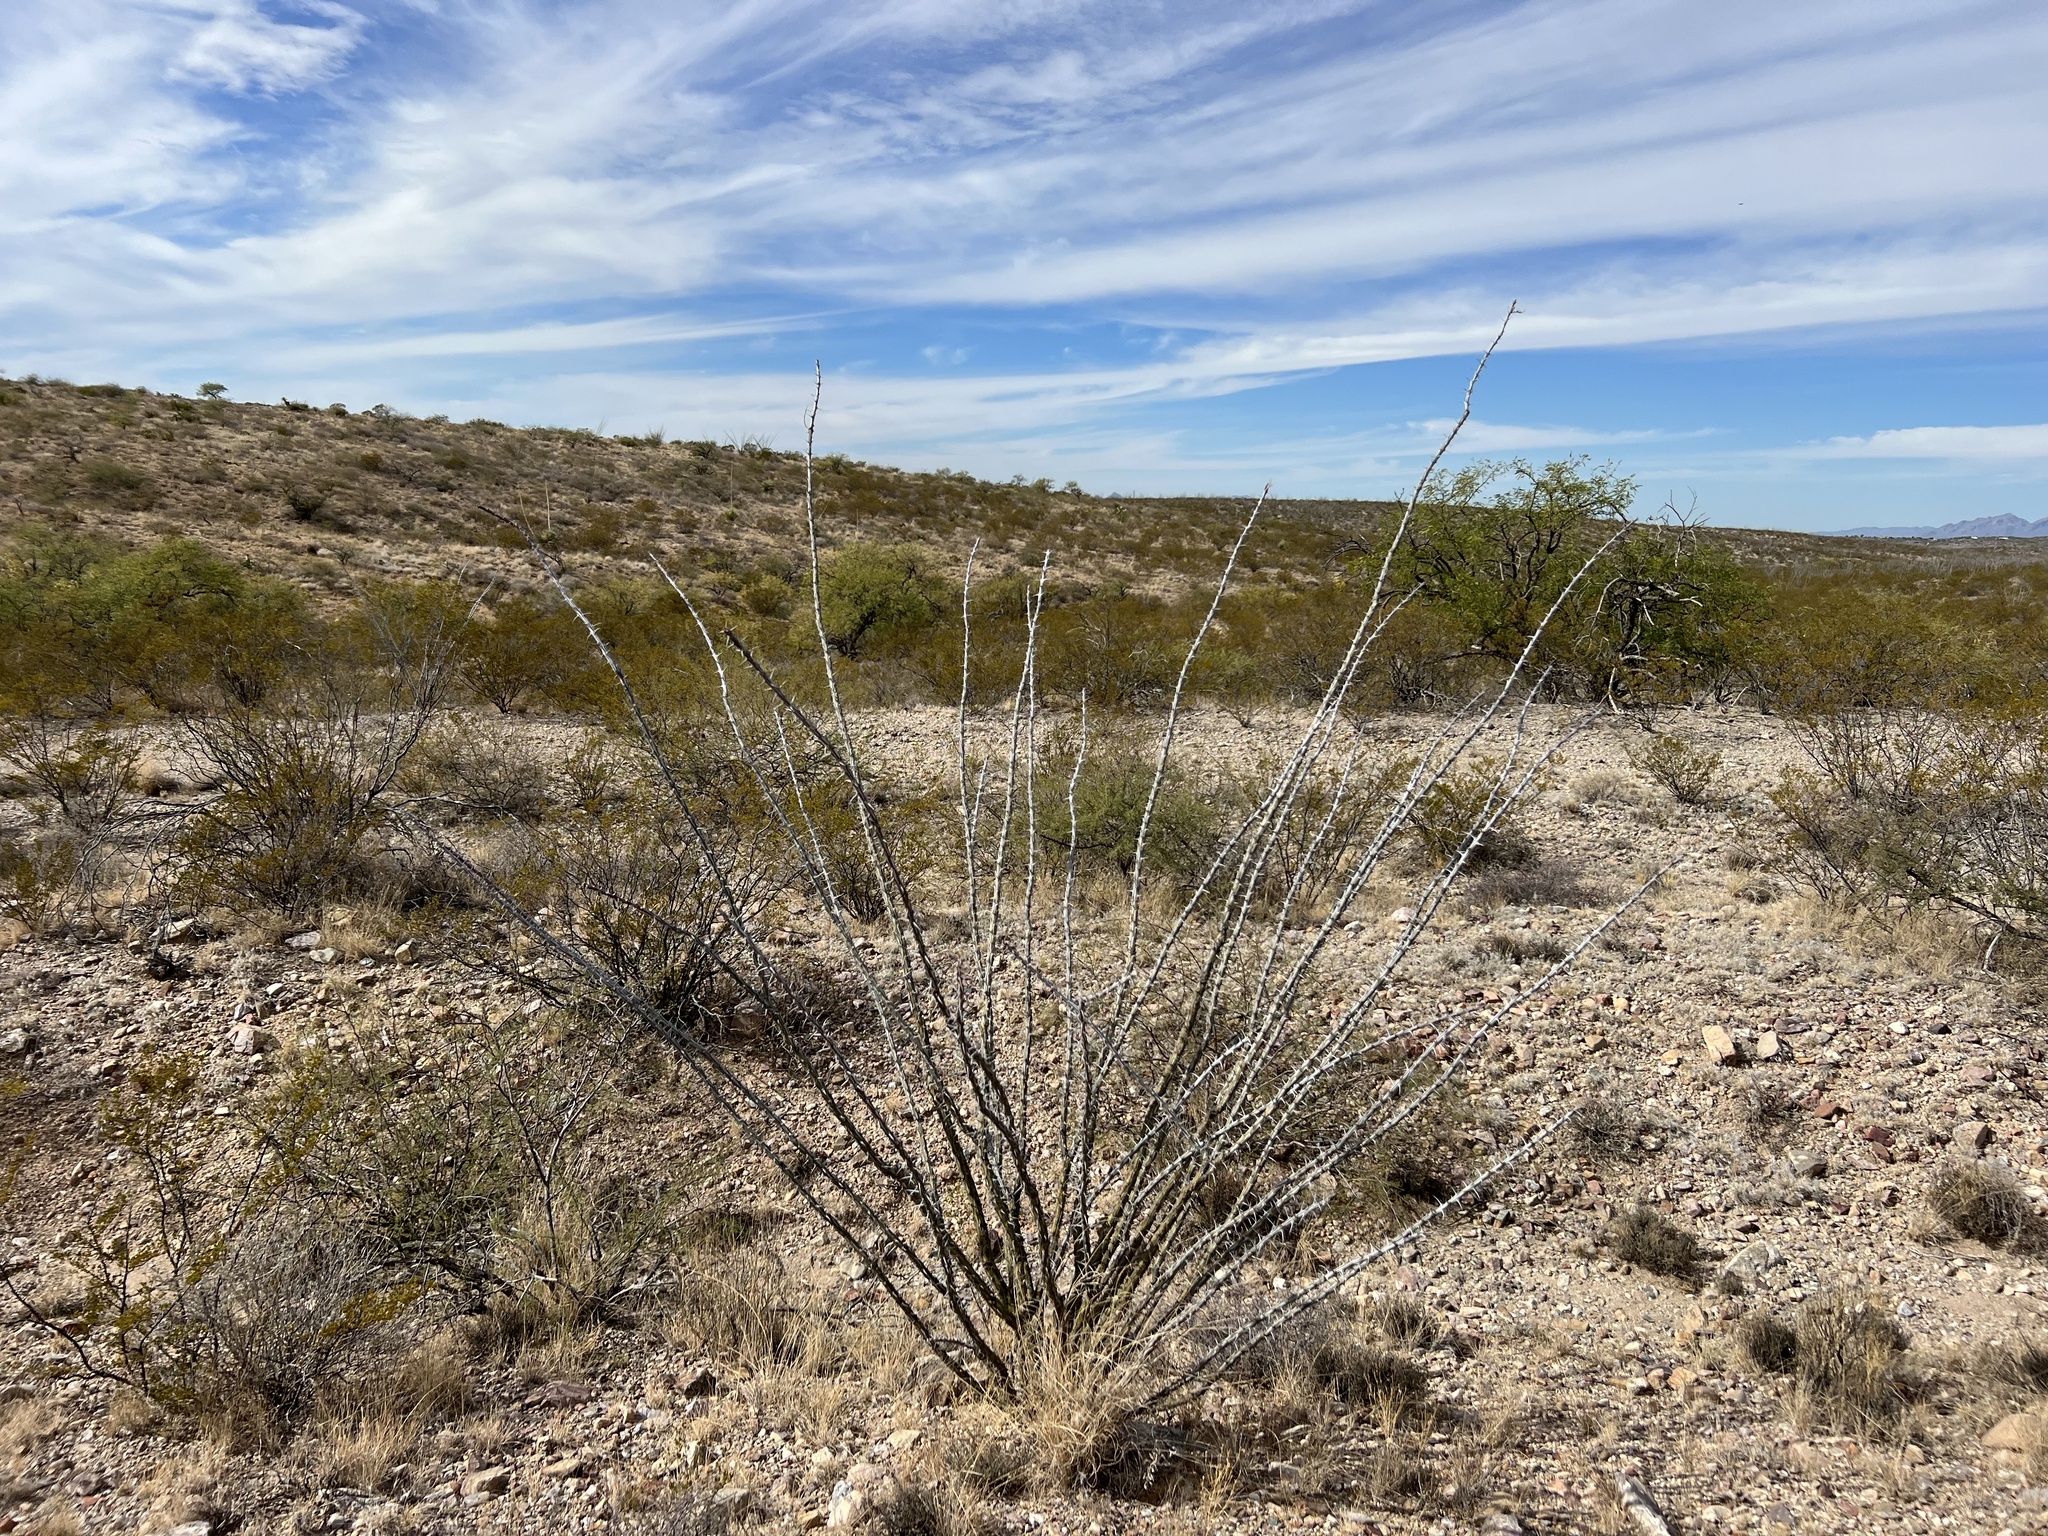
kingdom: Plantae
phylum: Tracheophyta
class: Magnoliopsida
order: Ericales
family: Fouquieriaceae
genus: Fouquieria
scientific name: Fouquieria splendens
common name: Vine-cactus
